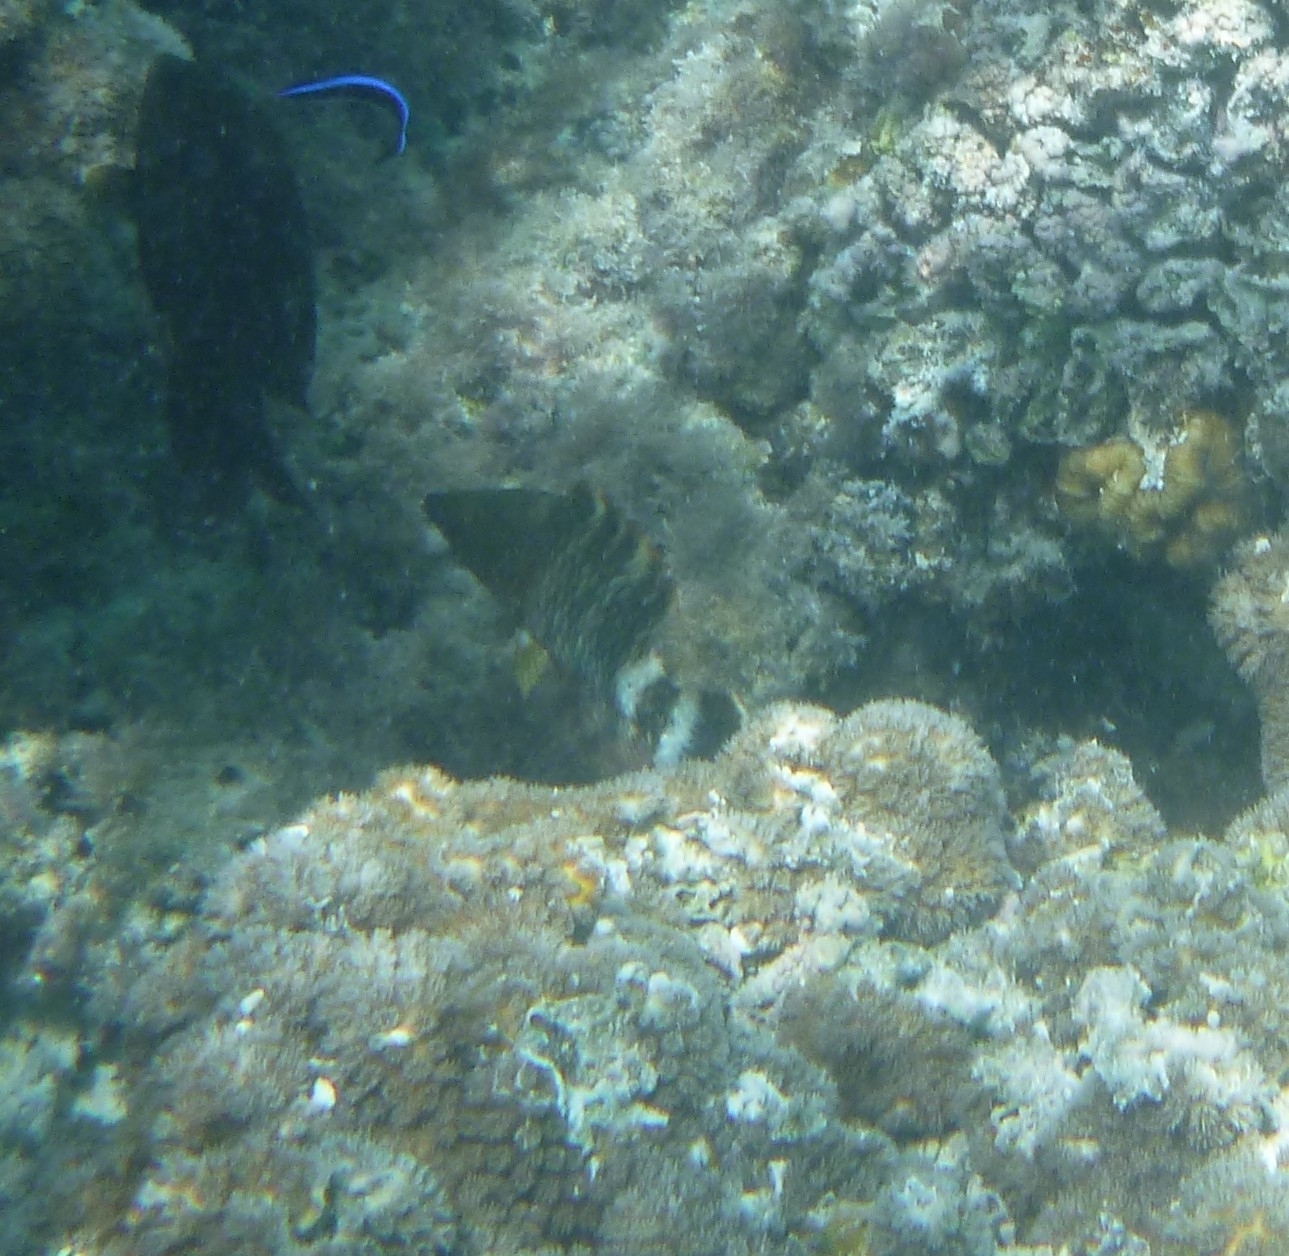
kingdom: Animalia
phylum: Chordata
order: Perciformes
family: Labridae
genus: Cheilinus
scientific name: Cheilinus chlorourus
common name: Floral wrasse
